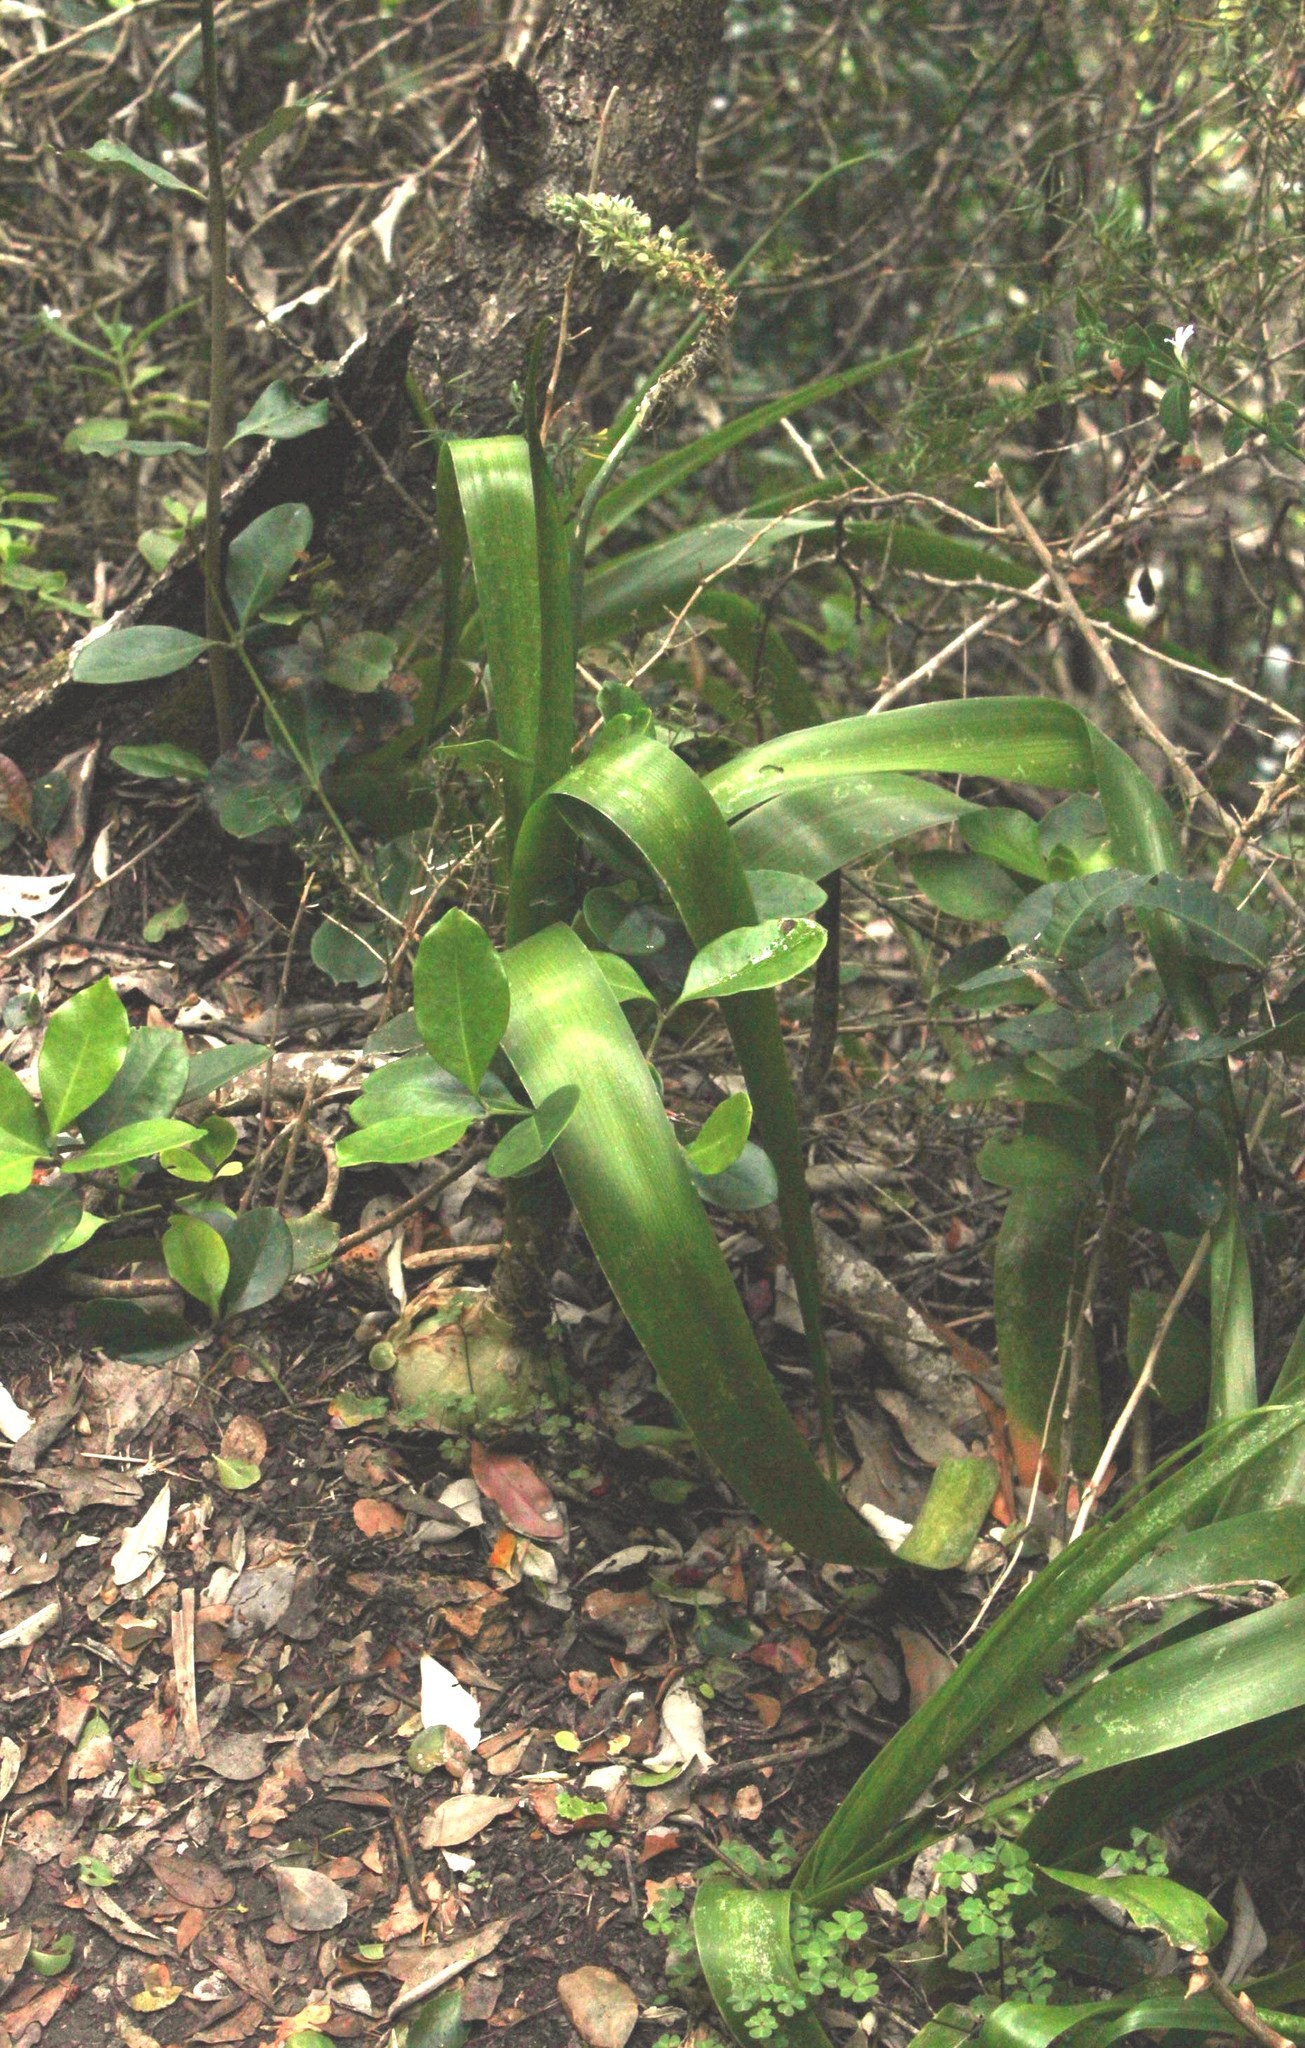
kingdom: Plantae
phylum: Tracheophyta
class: Liliopsida
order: Asparagales
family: Asparagaceae
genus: Albuca
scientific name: Albuca bracteata
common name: Sea-onion
